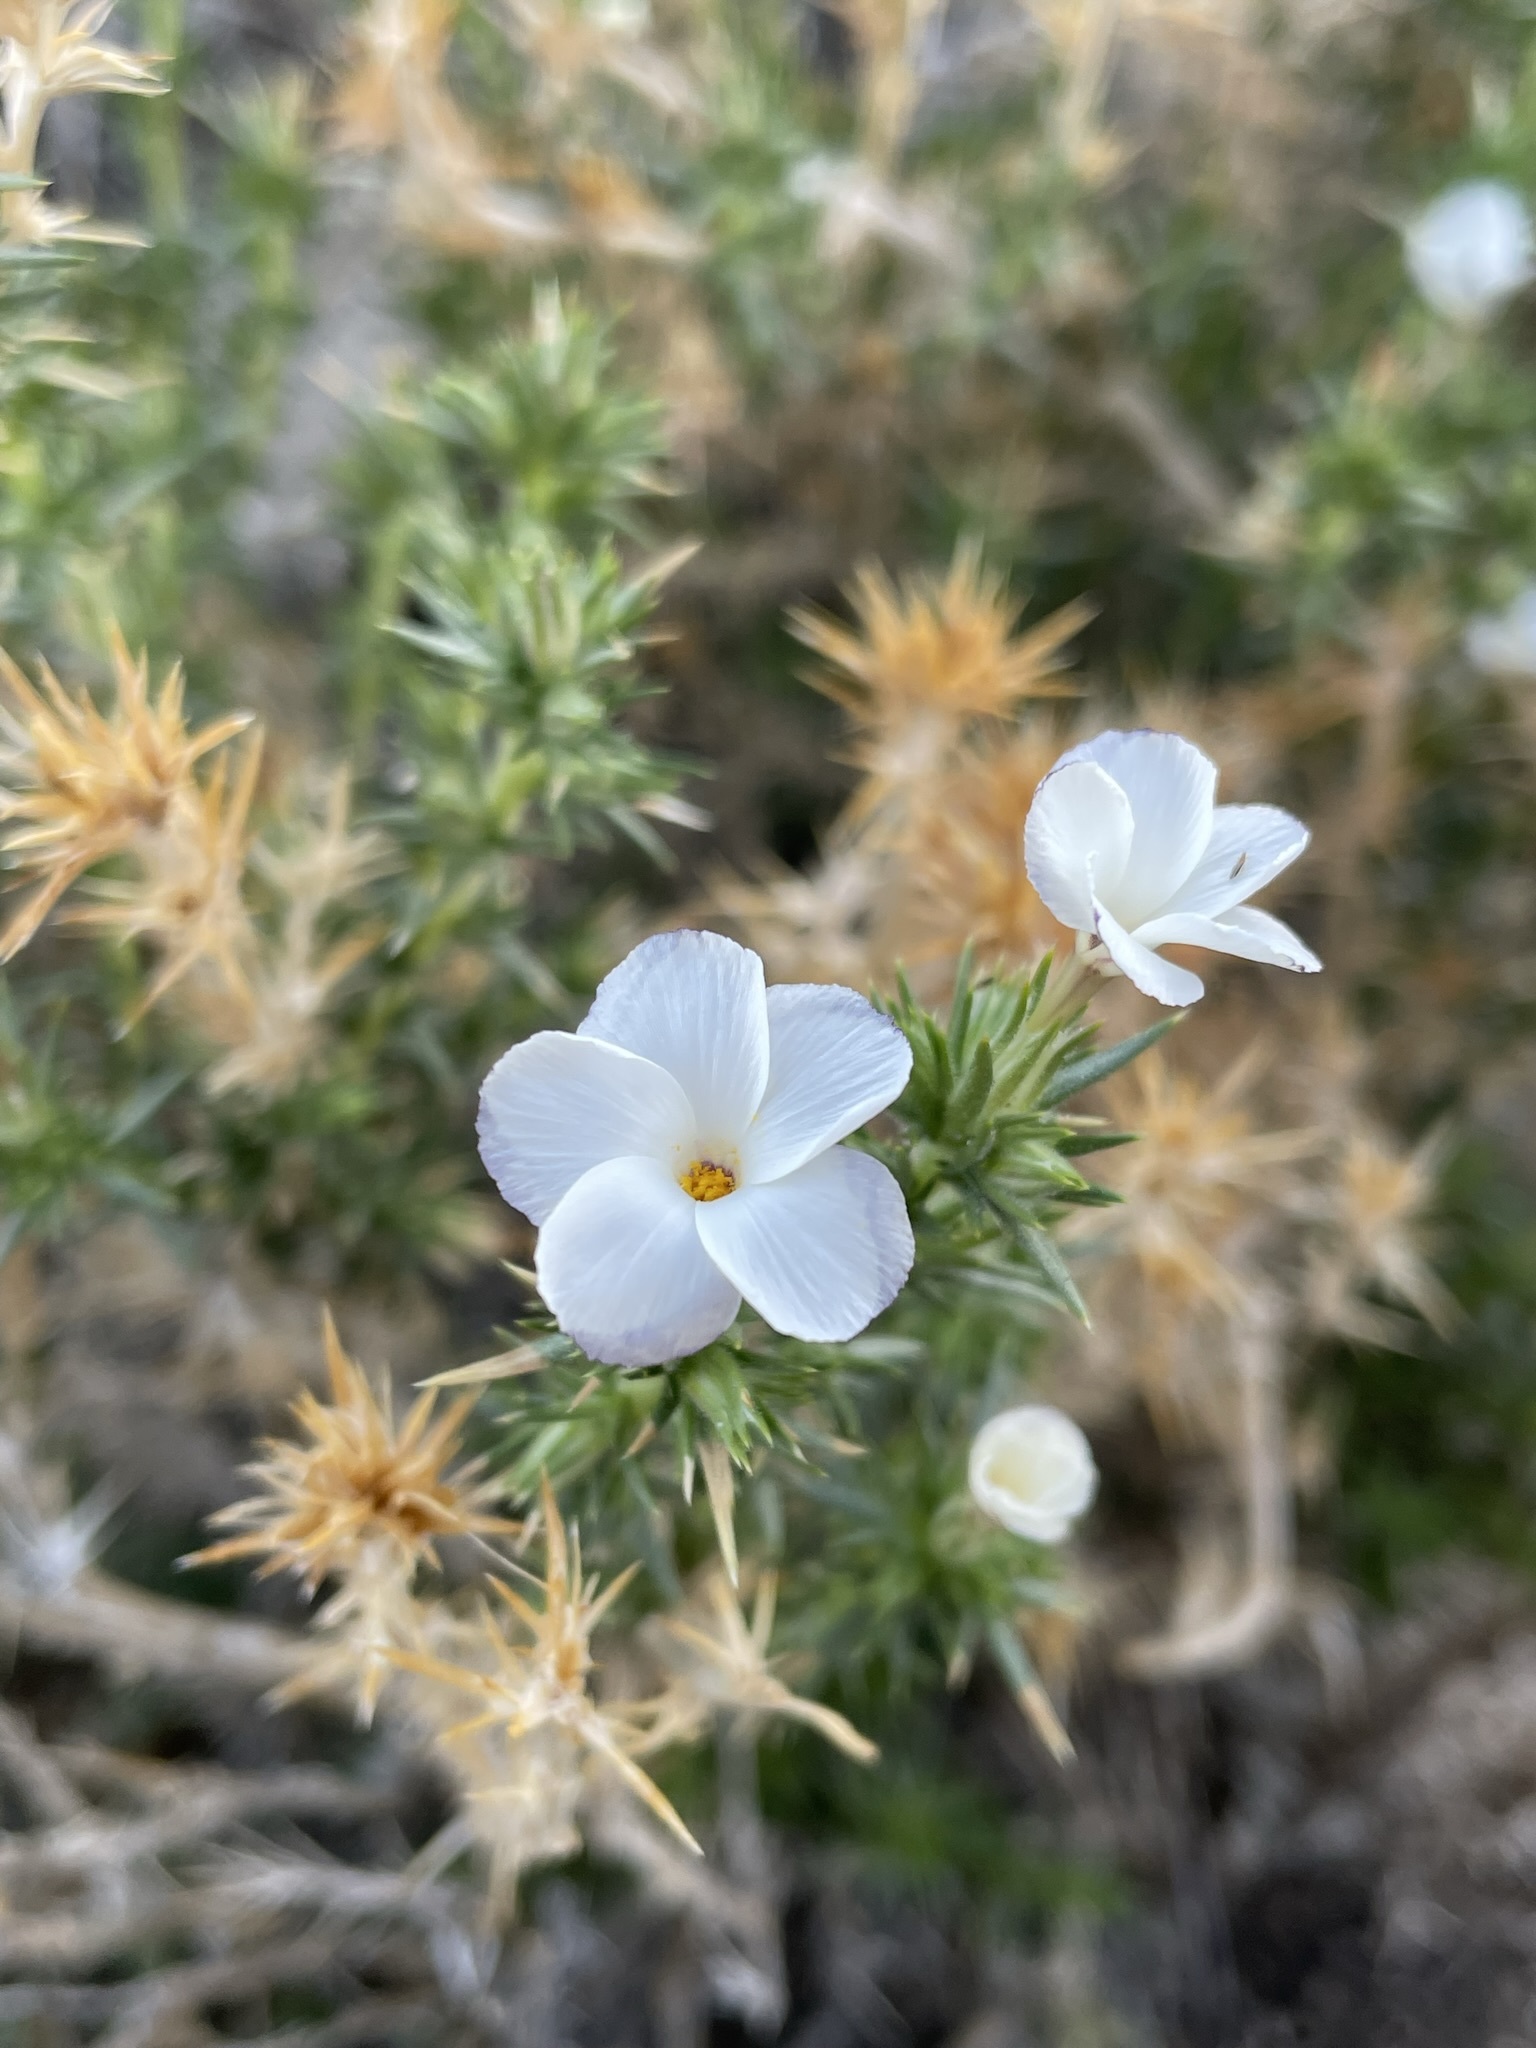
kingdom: Plantae
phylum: Tracheophyta
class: Magnoliopsida
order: Ericales
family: Polemoniaceae
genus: Linanthus
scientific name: Linanthus pungens
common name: Granite prickly phlox
